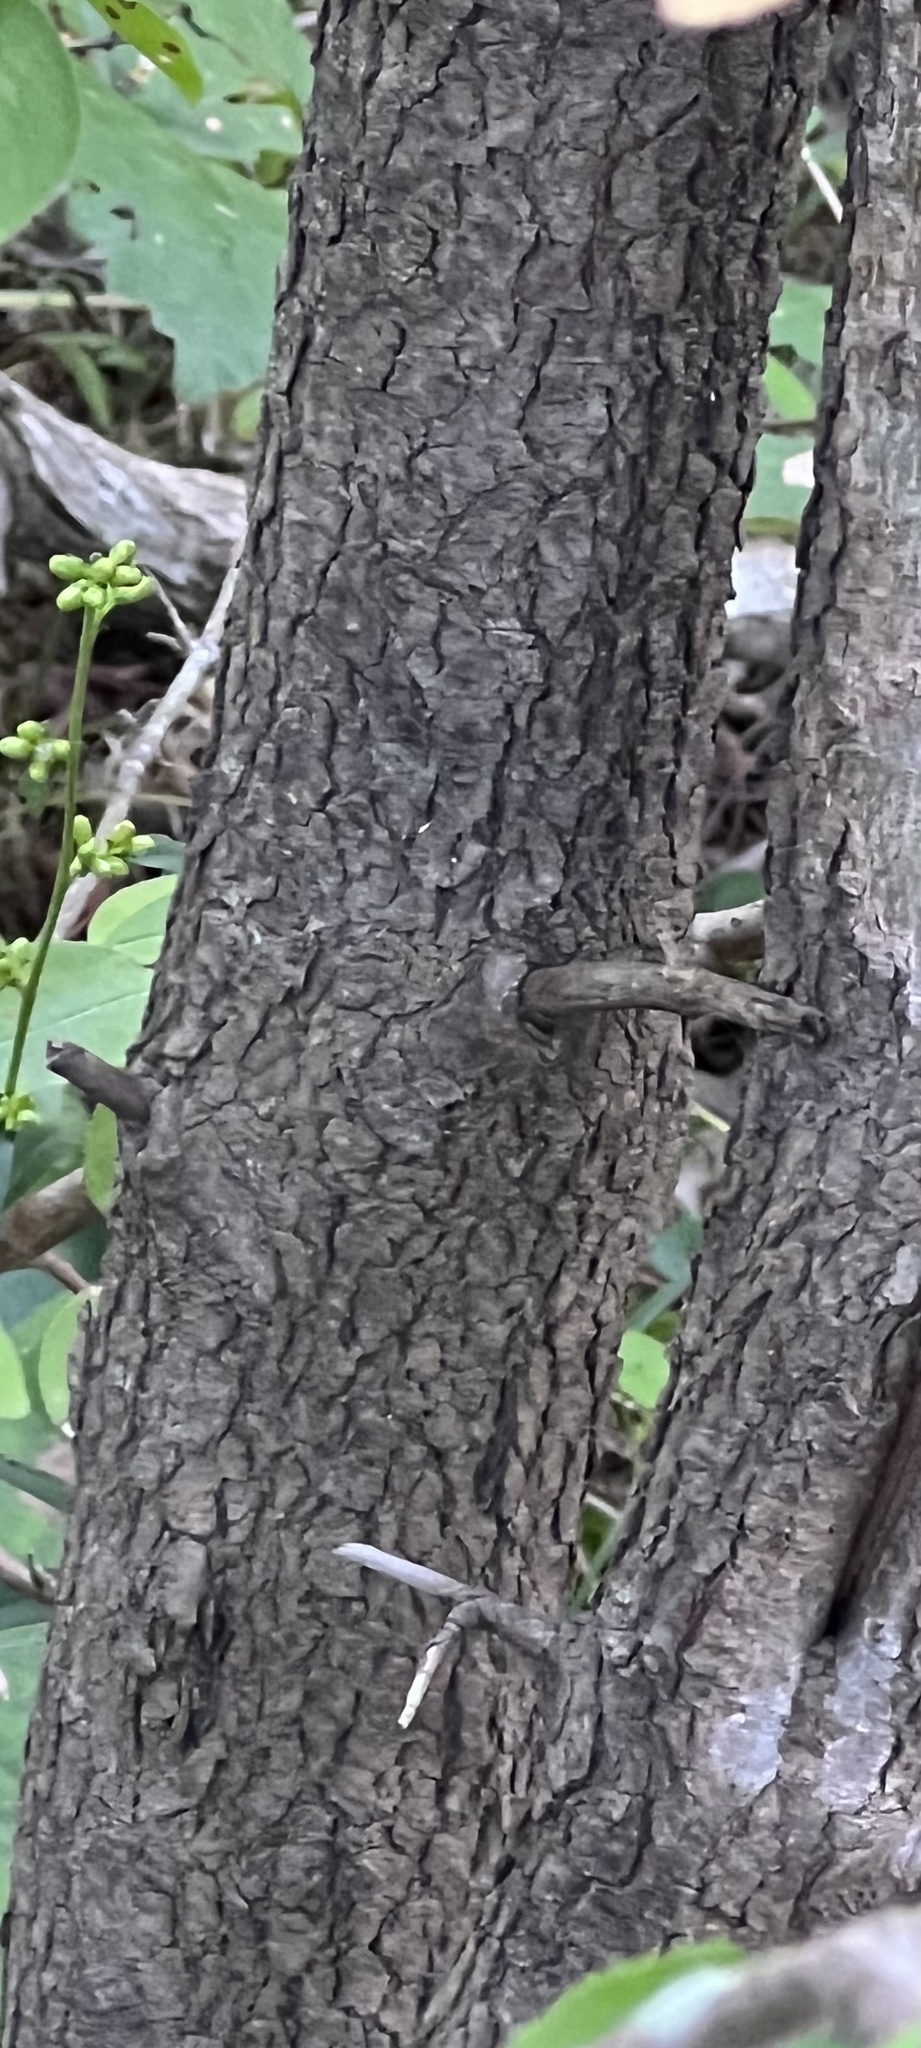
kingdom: Plantae
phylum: Tracheophyta
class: Magnoliopsida
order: Dipsacales
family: Viburnaceae
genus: Viburnum
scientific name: Viburnum prunifolium
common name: Black haw
